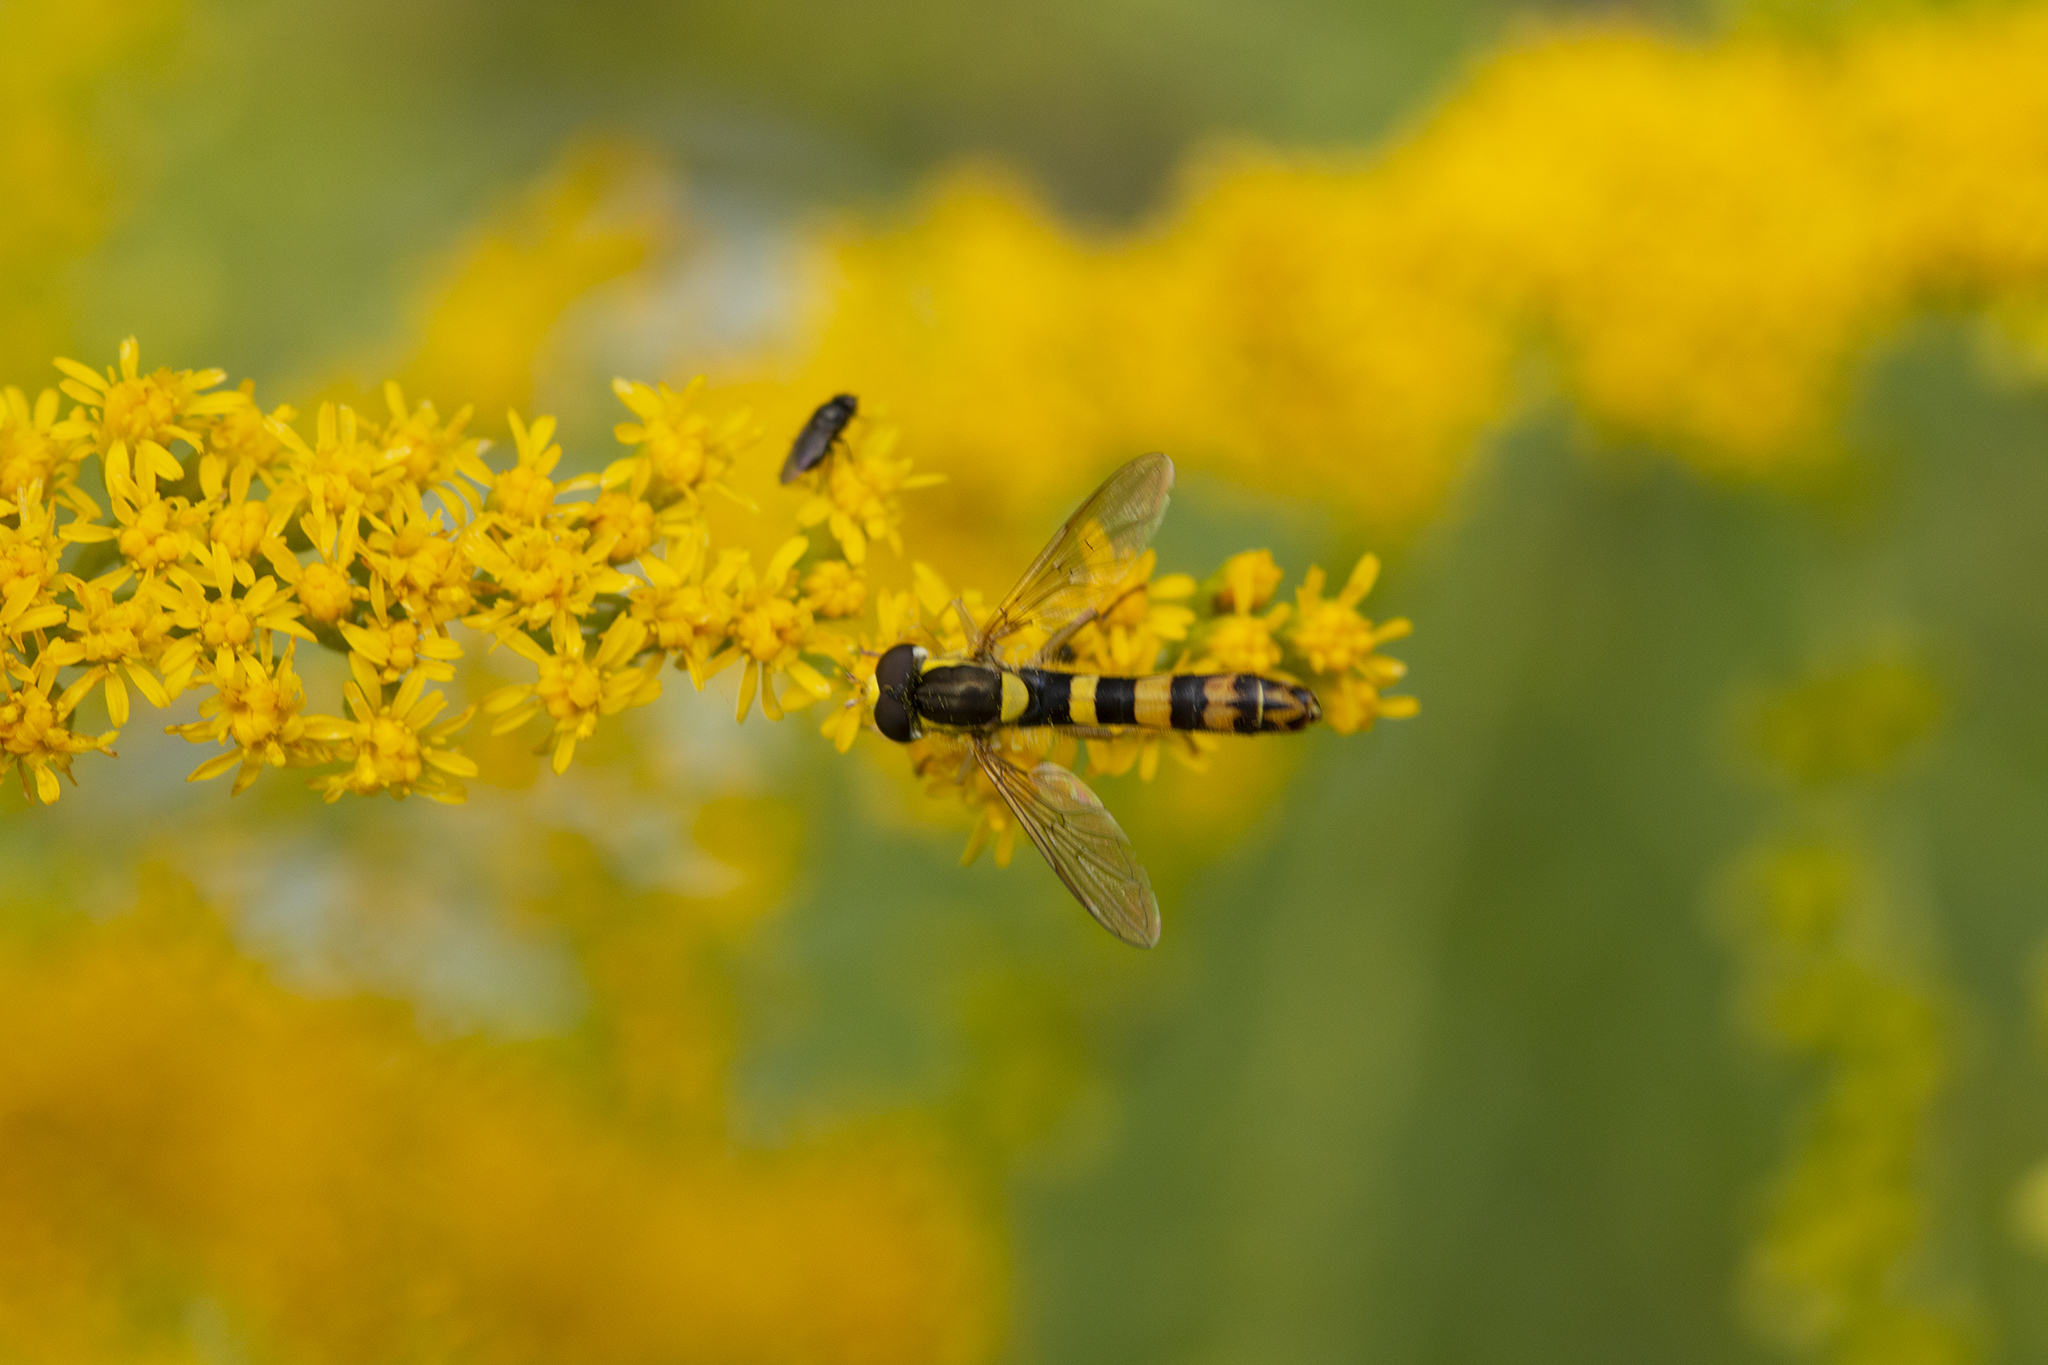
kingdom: Animalia
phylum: Arthropoda
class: Insecta
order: Diptera
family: Syrphidae
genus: Sphaerophoria
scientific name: Sphaerophoria scripta
